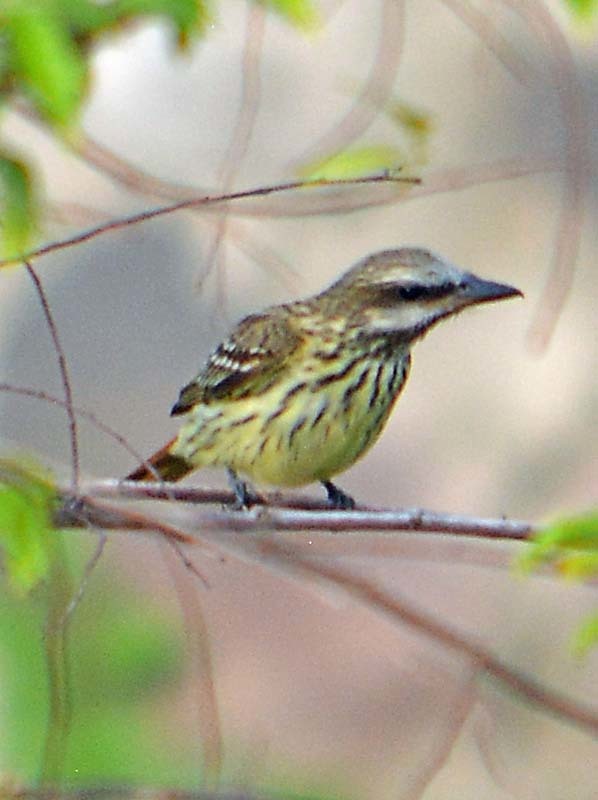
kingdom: Animalia
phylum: Chordata
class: Aves
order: Passeriformes
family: Tyrannidae
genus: Myiodynastes
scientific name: Myiodynastes luteiventris
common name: Sulphur-bellied flycatcher
